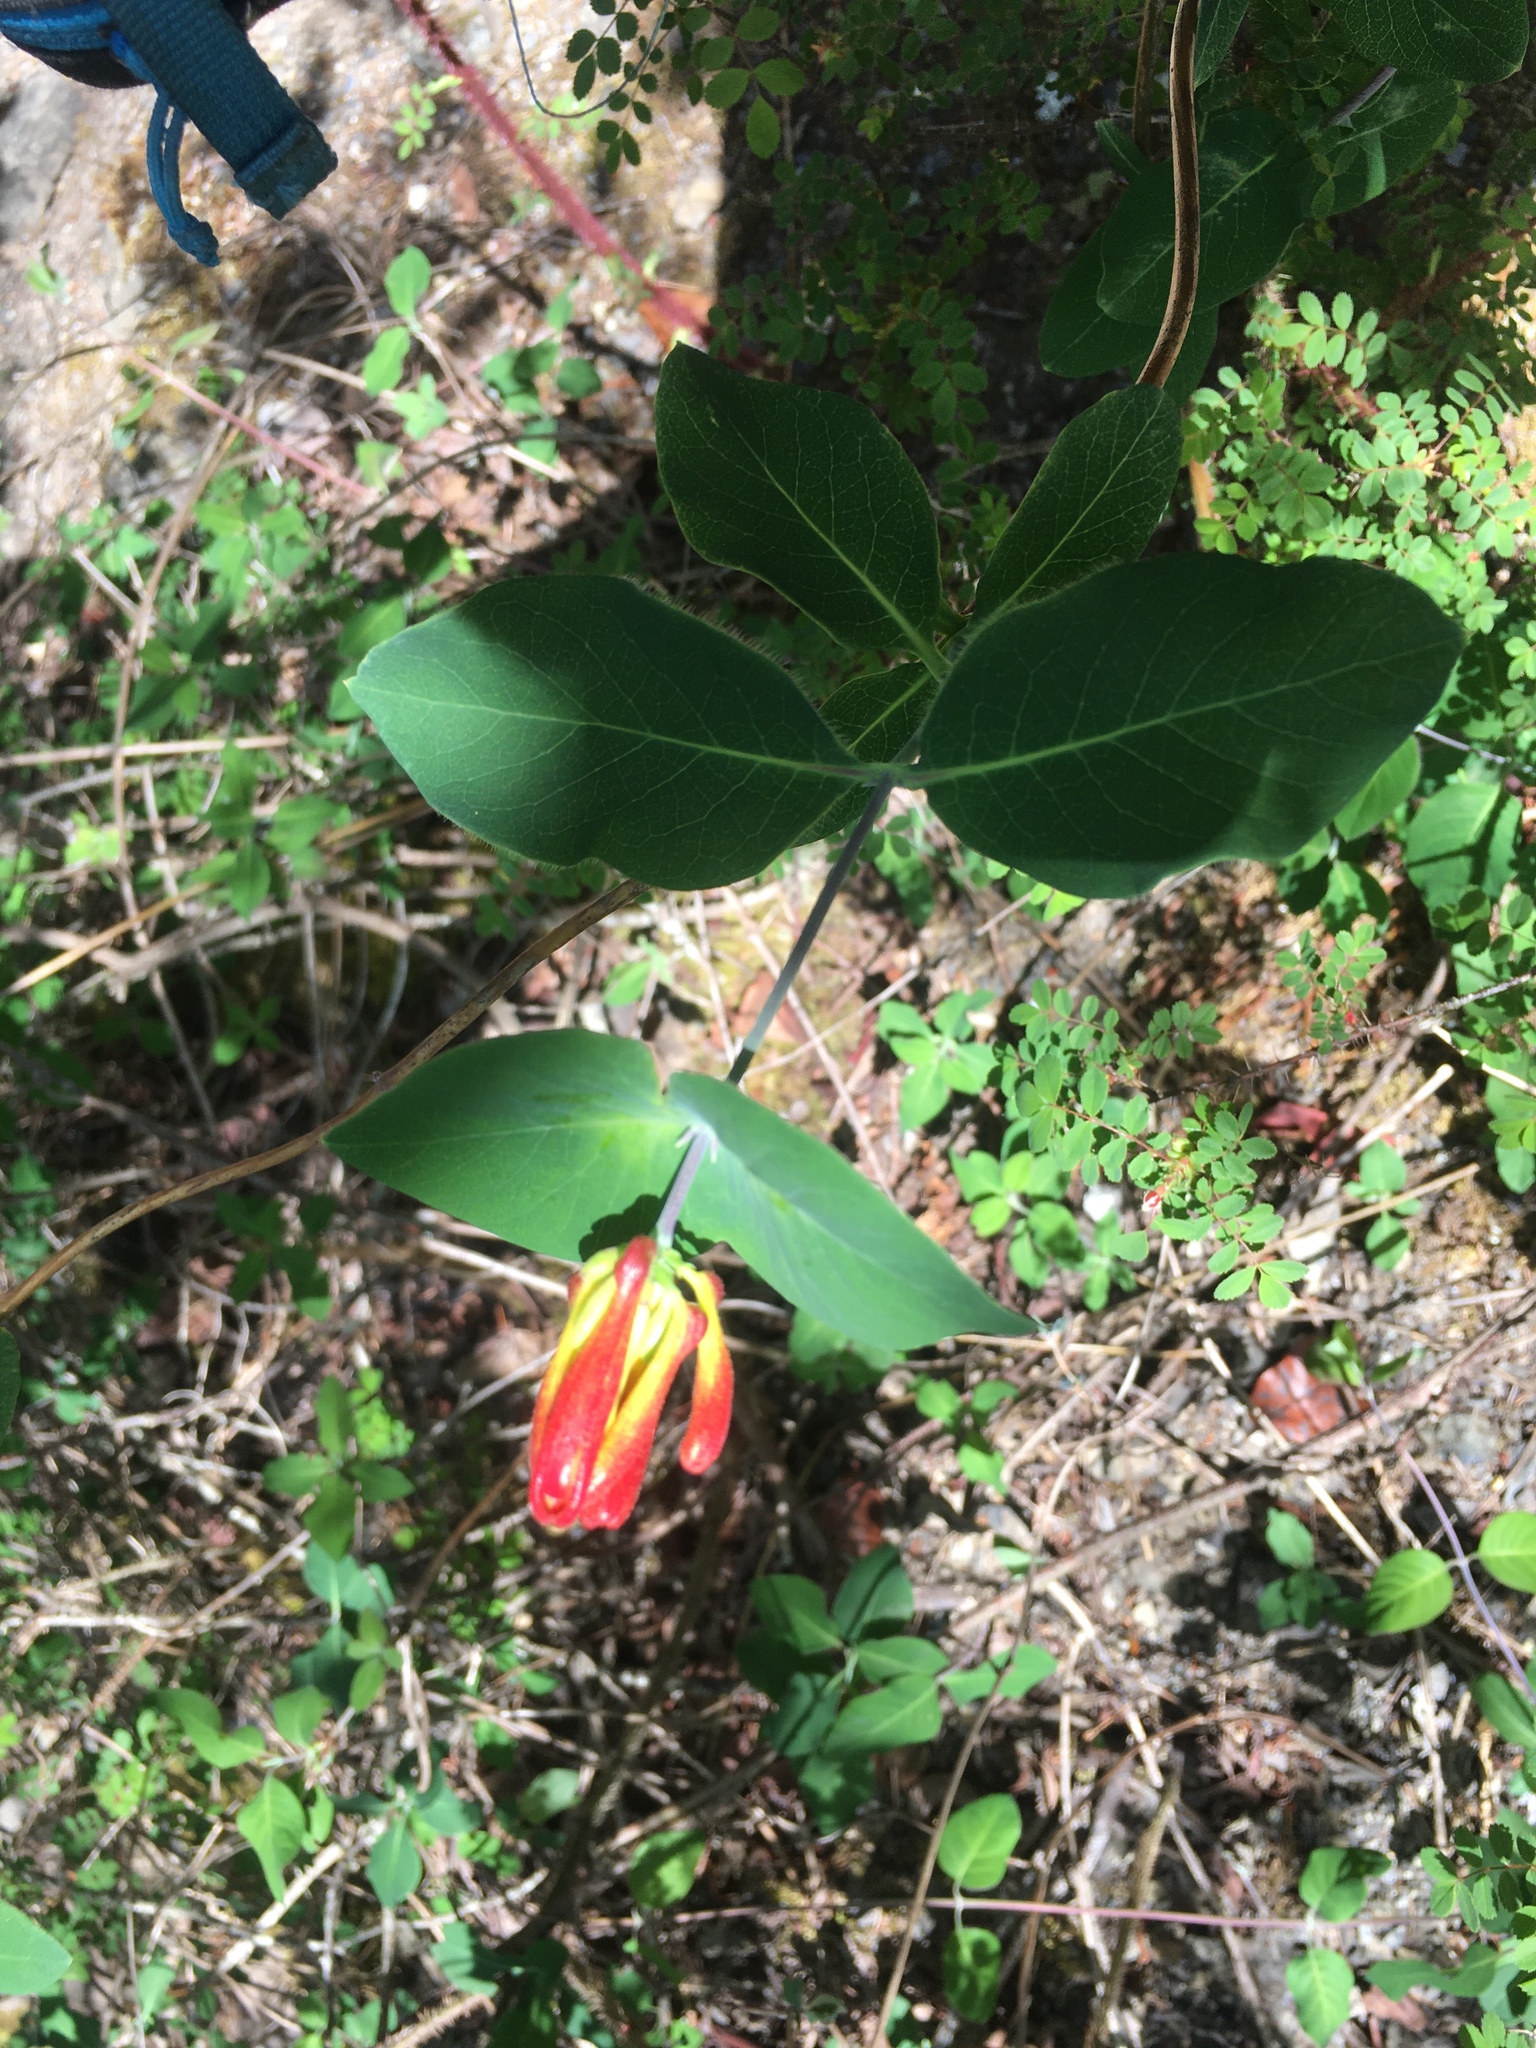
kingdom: Plantae
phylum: Tracheophyta
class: Magnoliopsida
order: Dipsacales
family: Caprifoliaceae
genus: Lonicera
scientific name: Lonicera ciliosa
